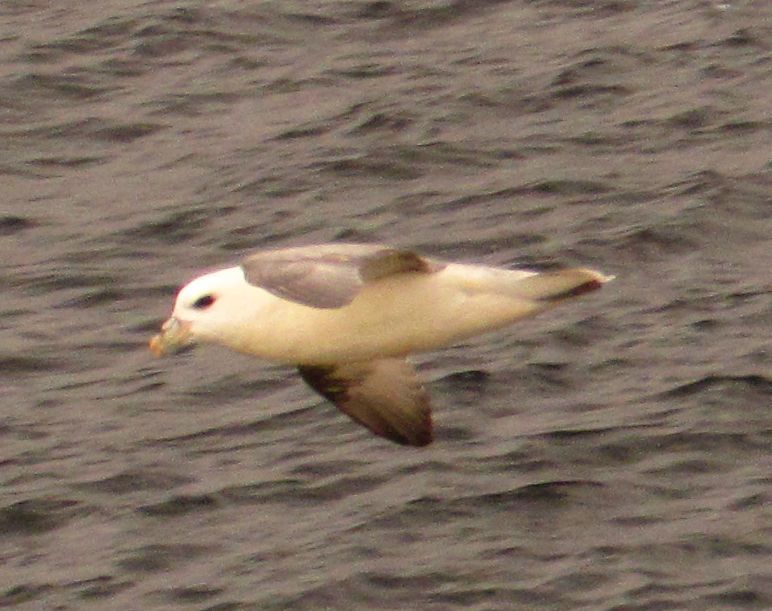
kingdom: Animalia
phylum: Chordata
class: Aves
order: Procellariiformes
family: Procellariidae
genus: Fulmarus
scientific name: Fulmarus glacialis
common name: Northern fulmar
